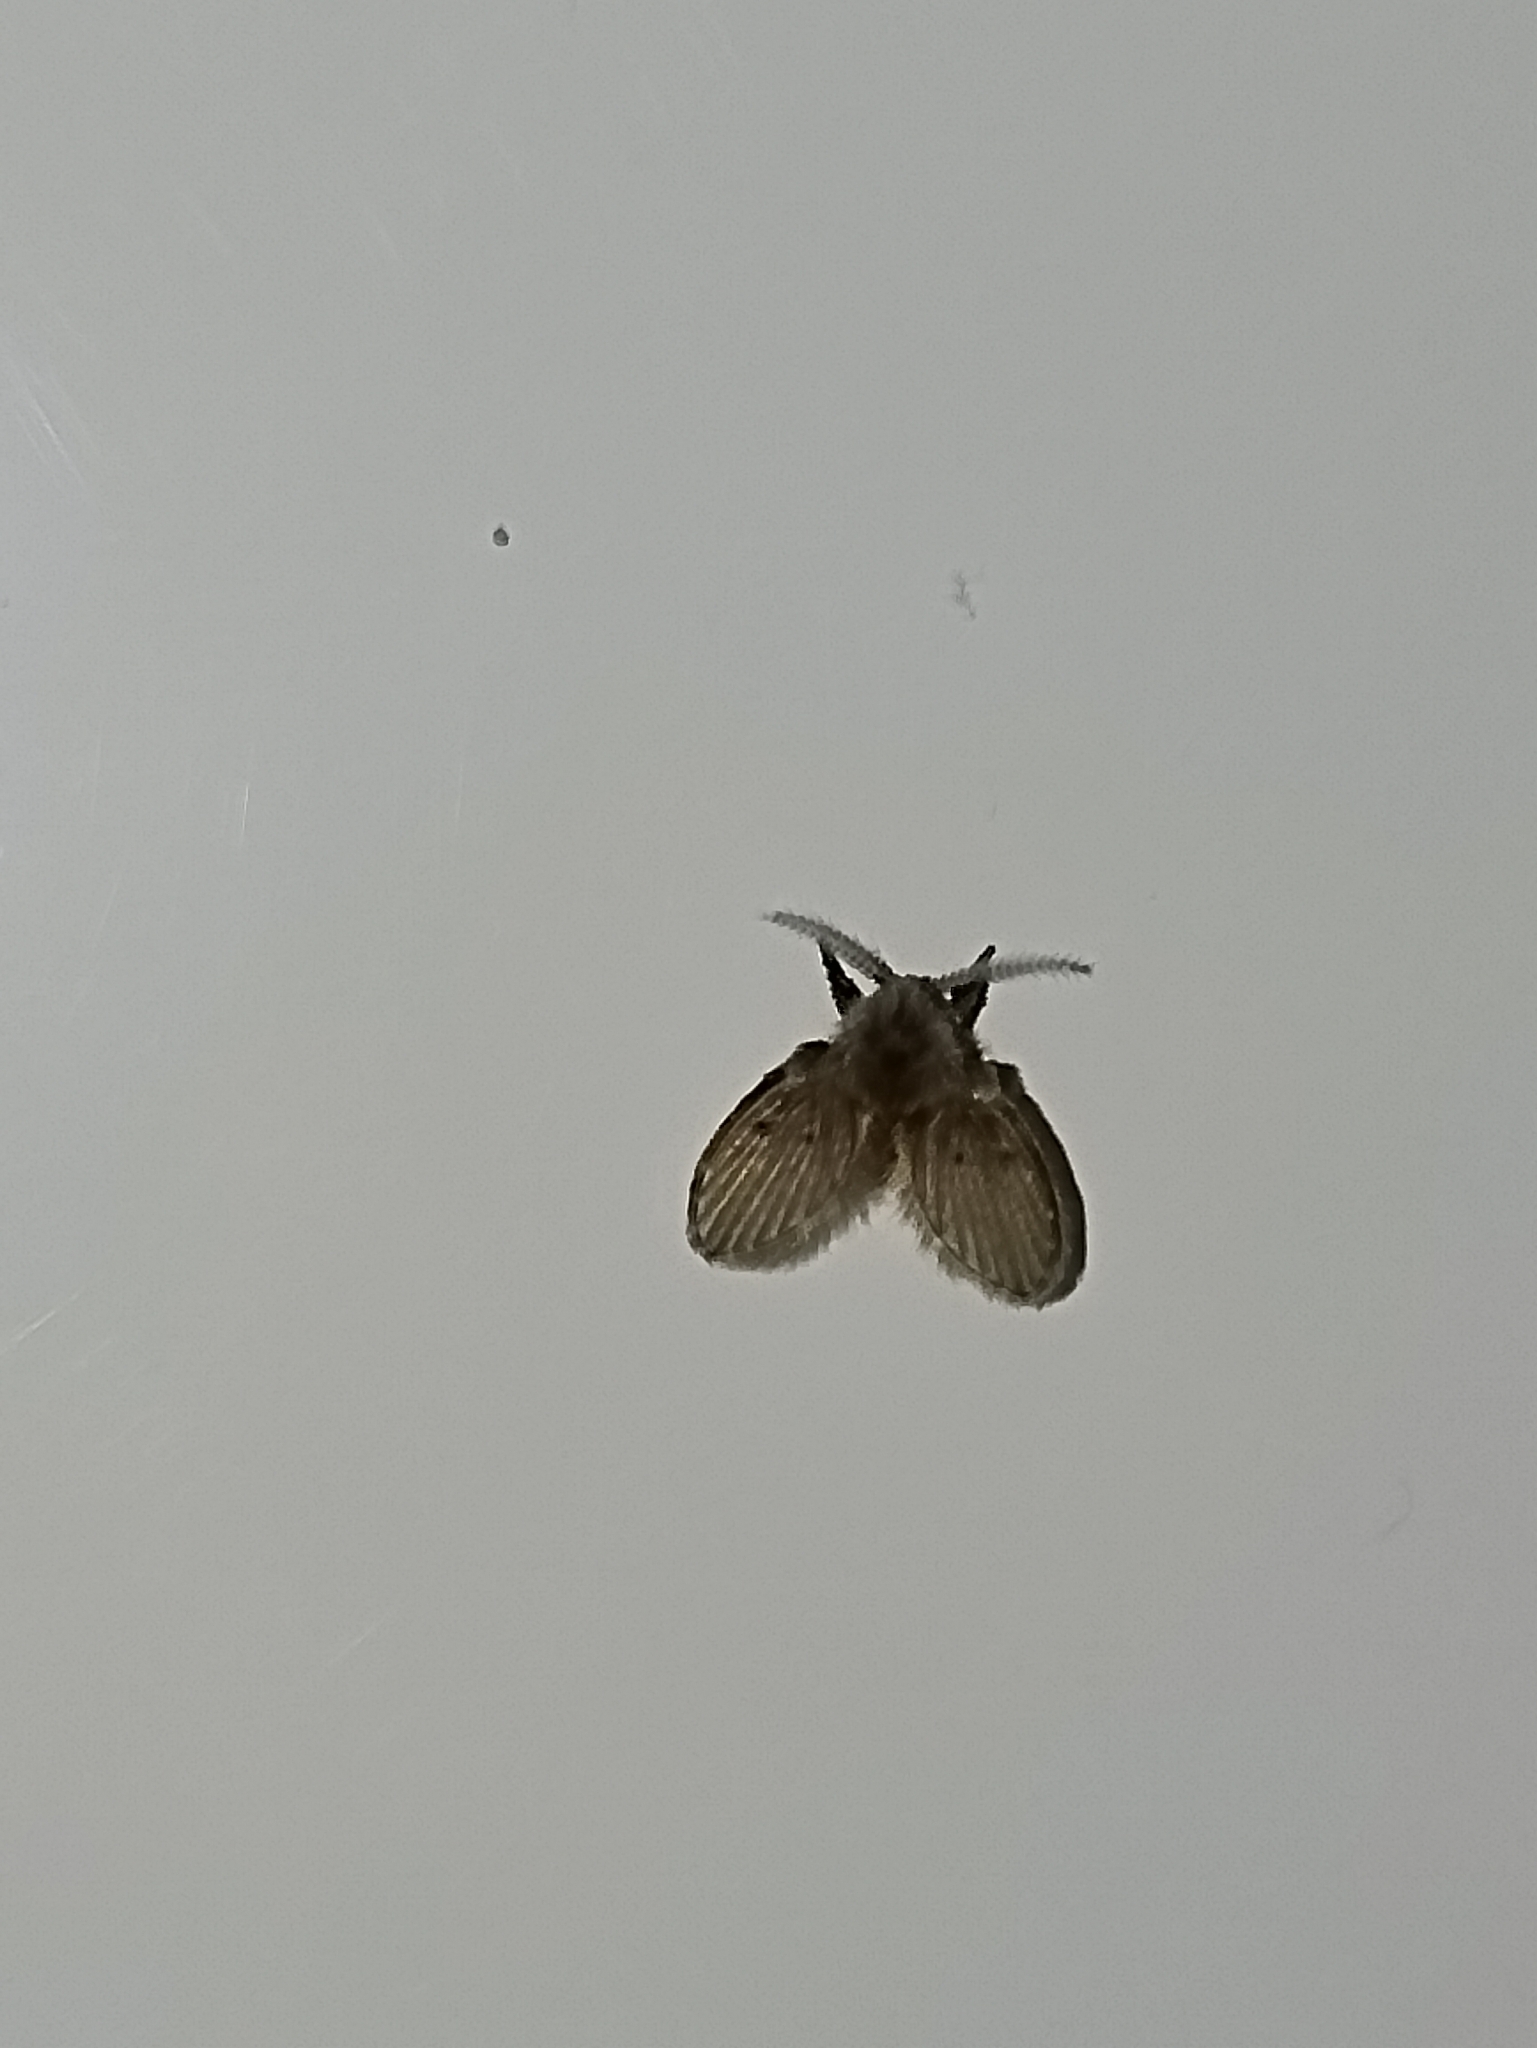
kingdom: Animalia
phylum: Arthropoda
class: Insecta
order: Diptera
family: Psychodidae
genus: Clogmia
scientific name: Clogmia albipunctatus
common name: White-spotted moth fly
